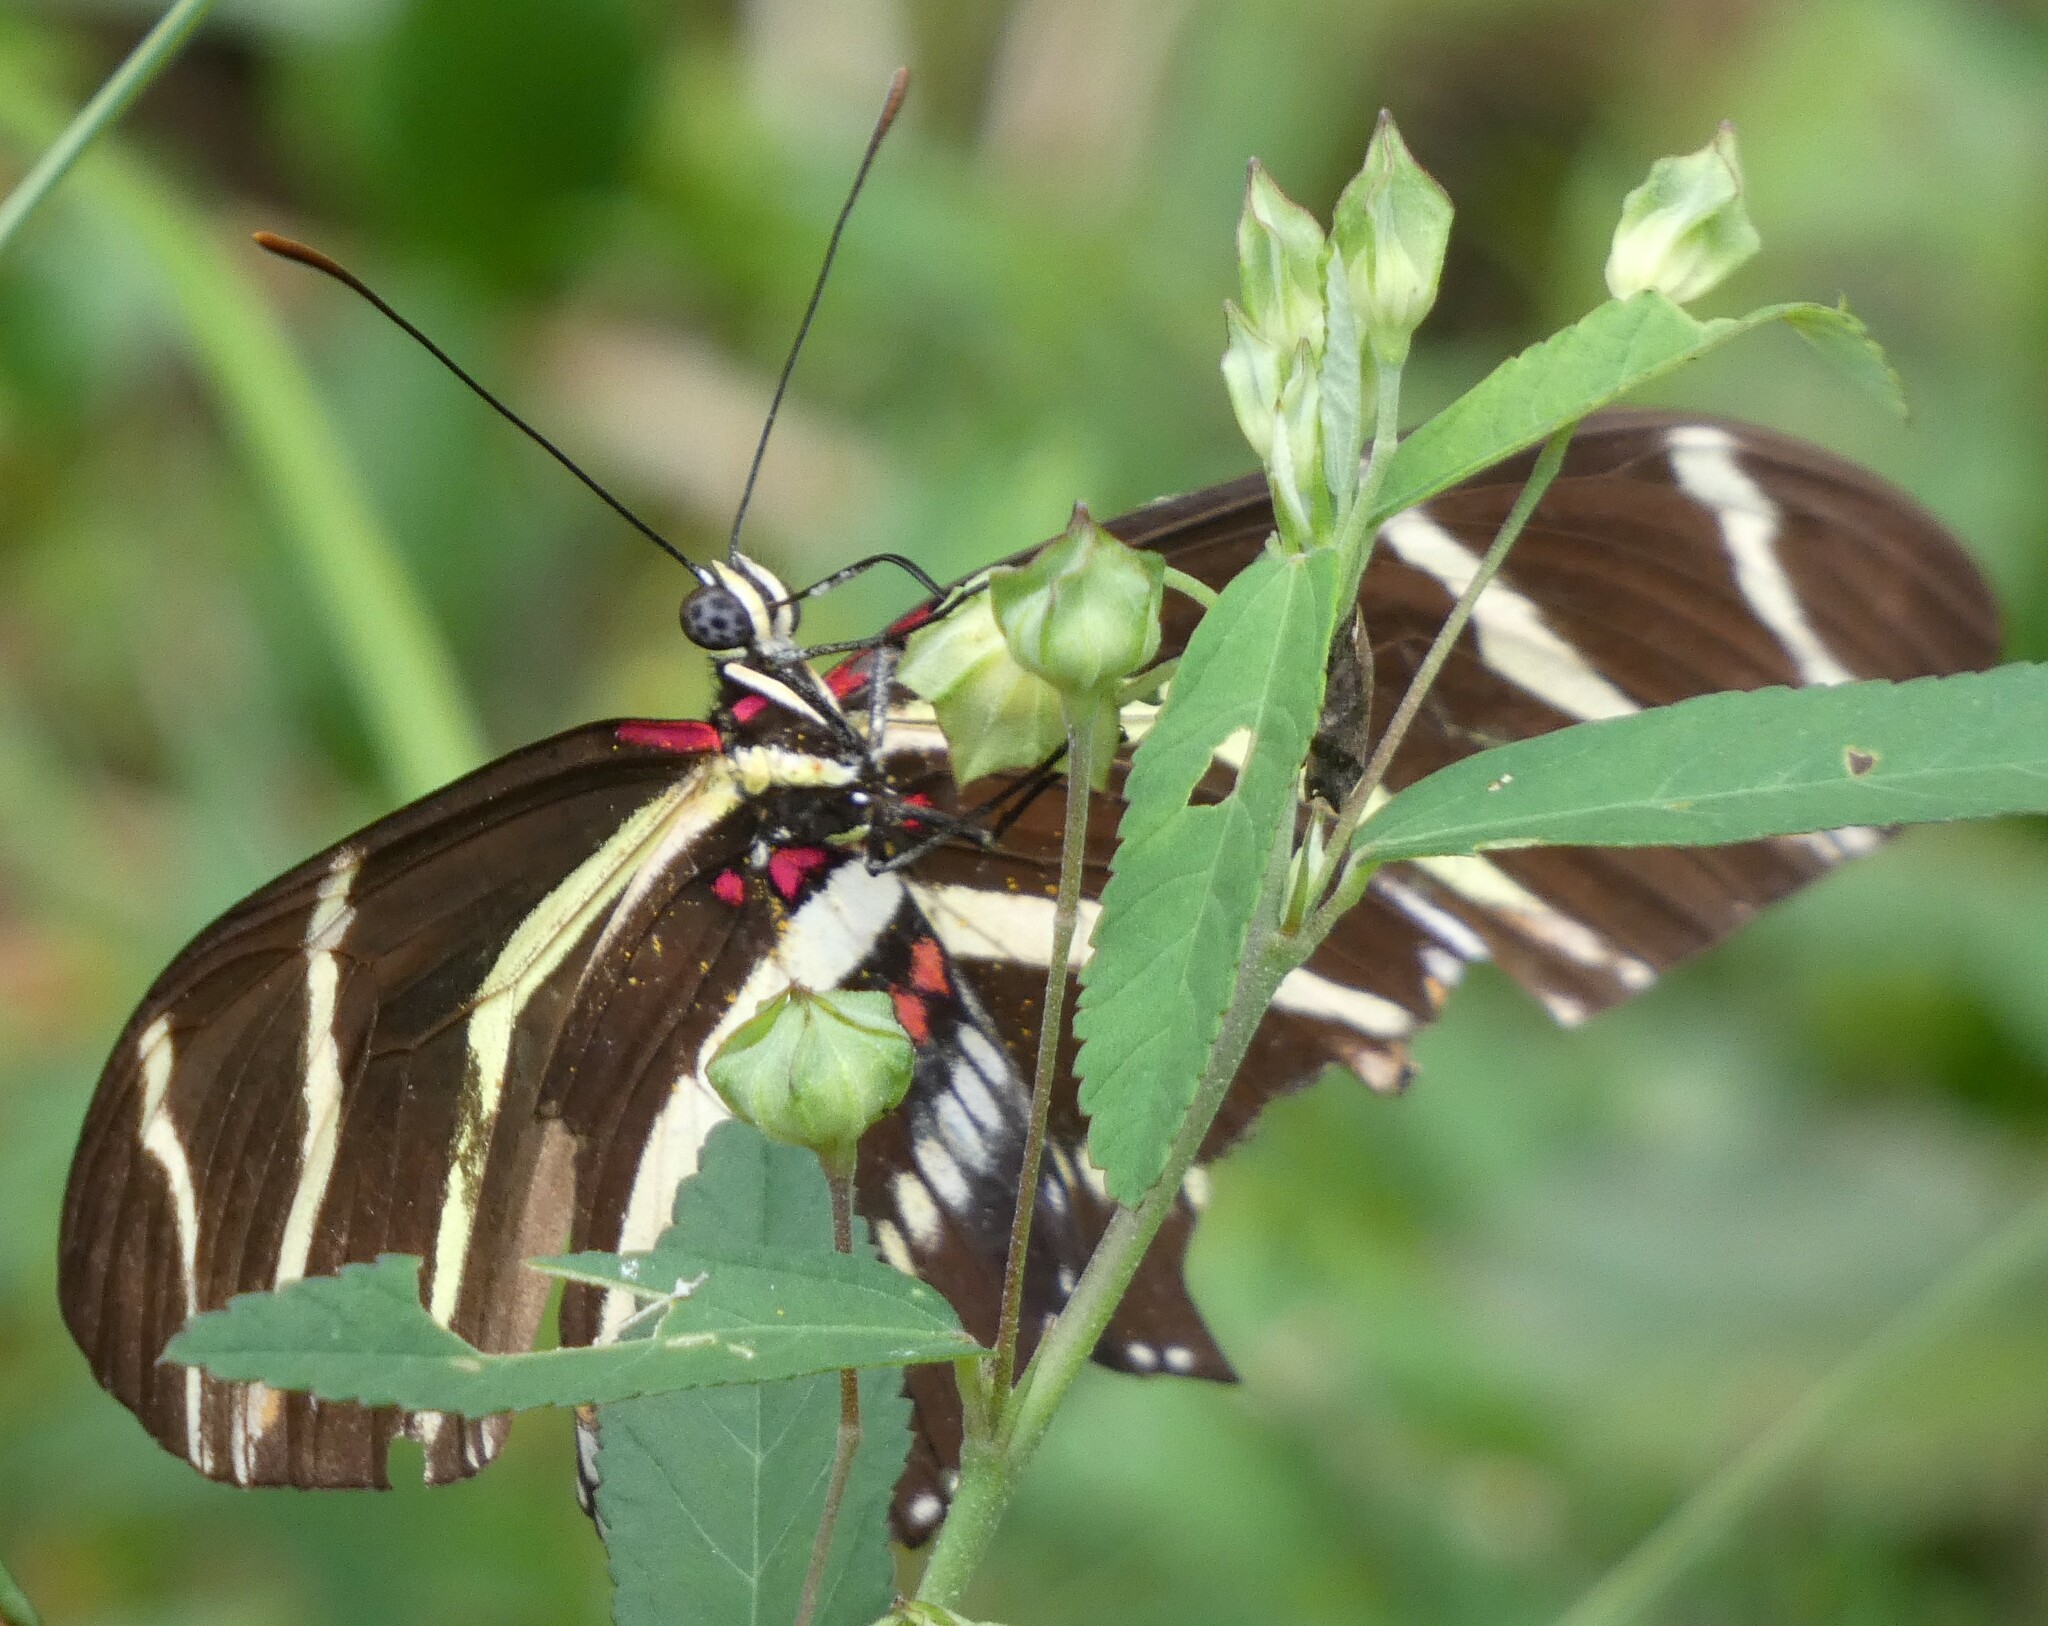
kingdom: Animalia
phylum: Arthropoda
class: Insecta
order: Lepidoptera
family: Nymphalidae
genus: Heliconius
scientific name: Heliconius charithonia
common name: Zebra long wing
